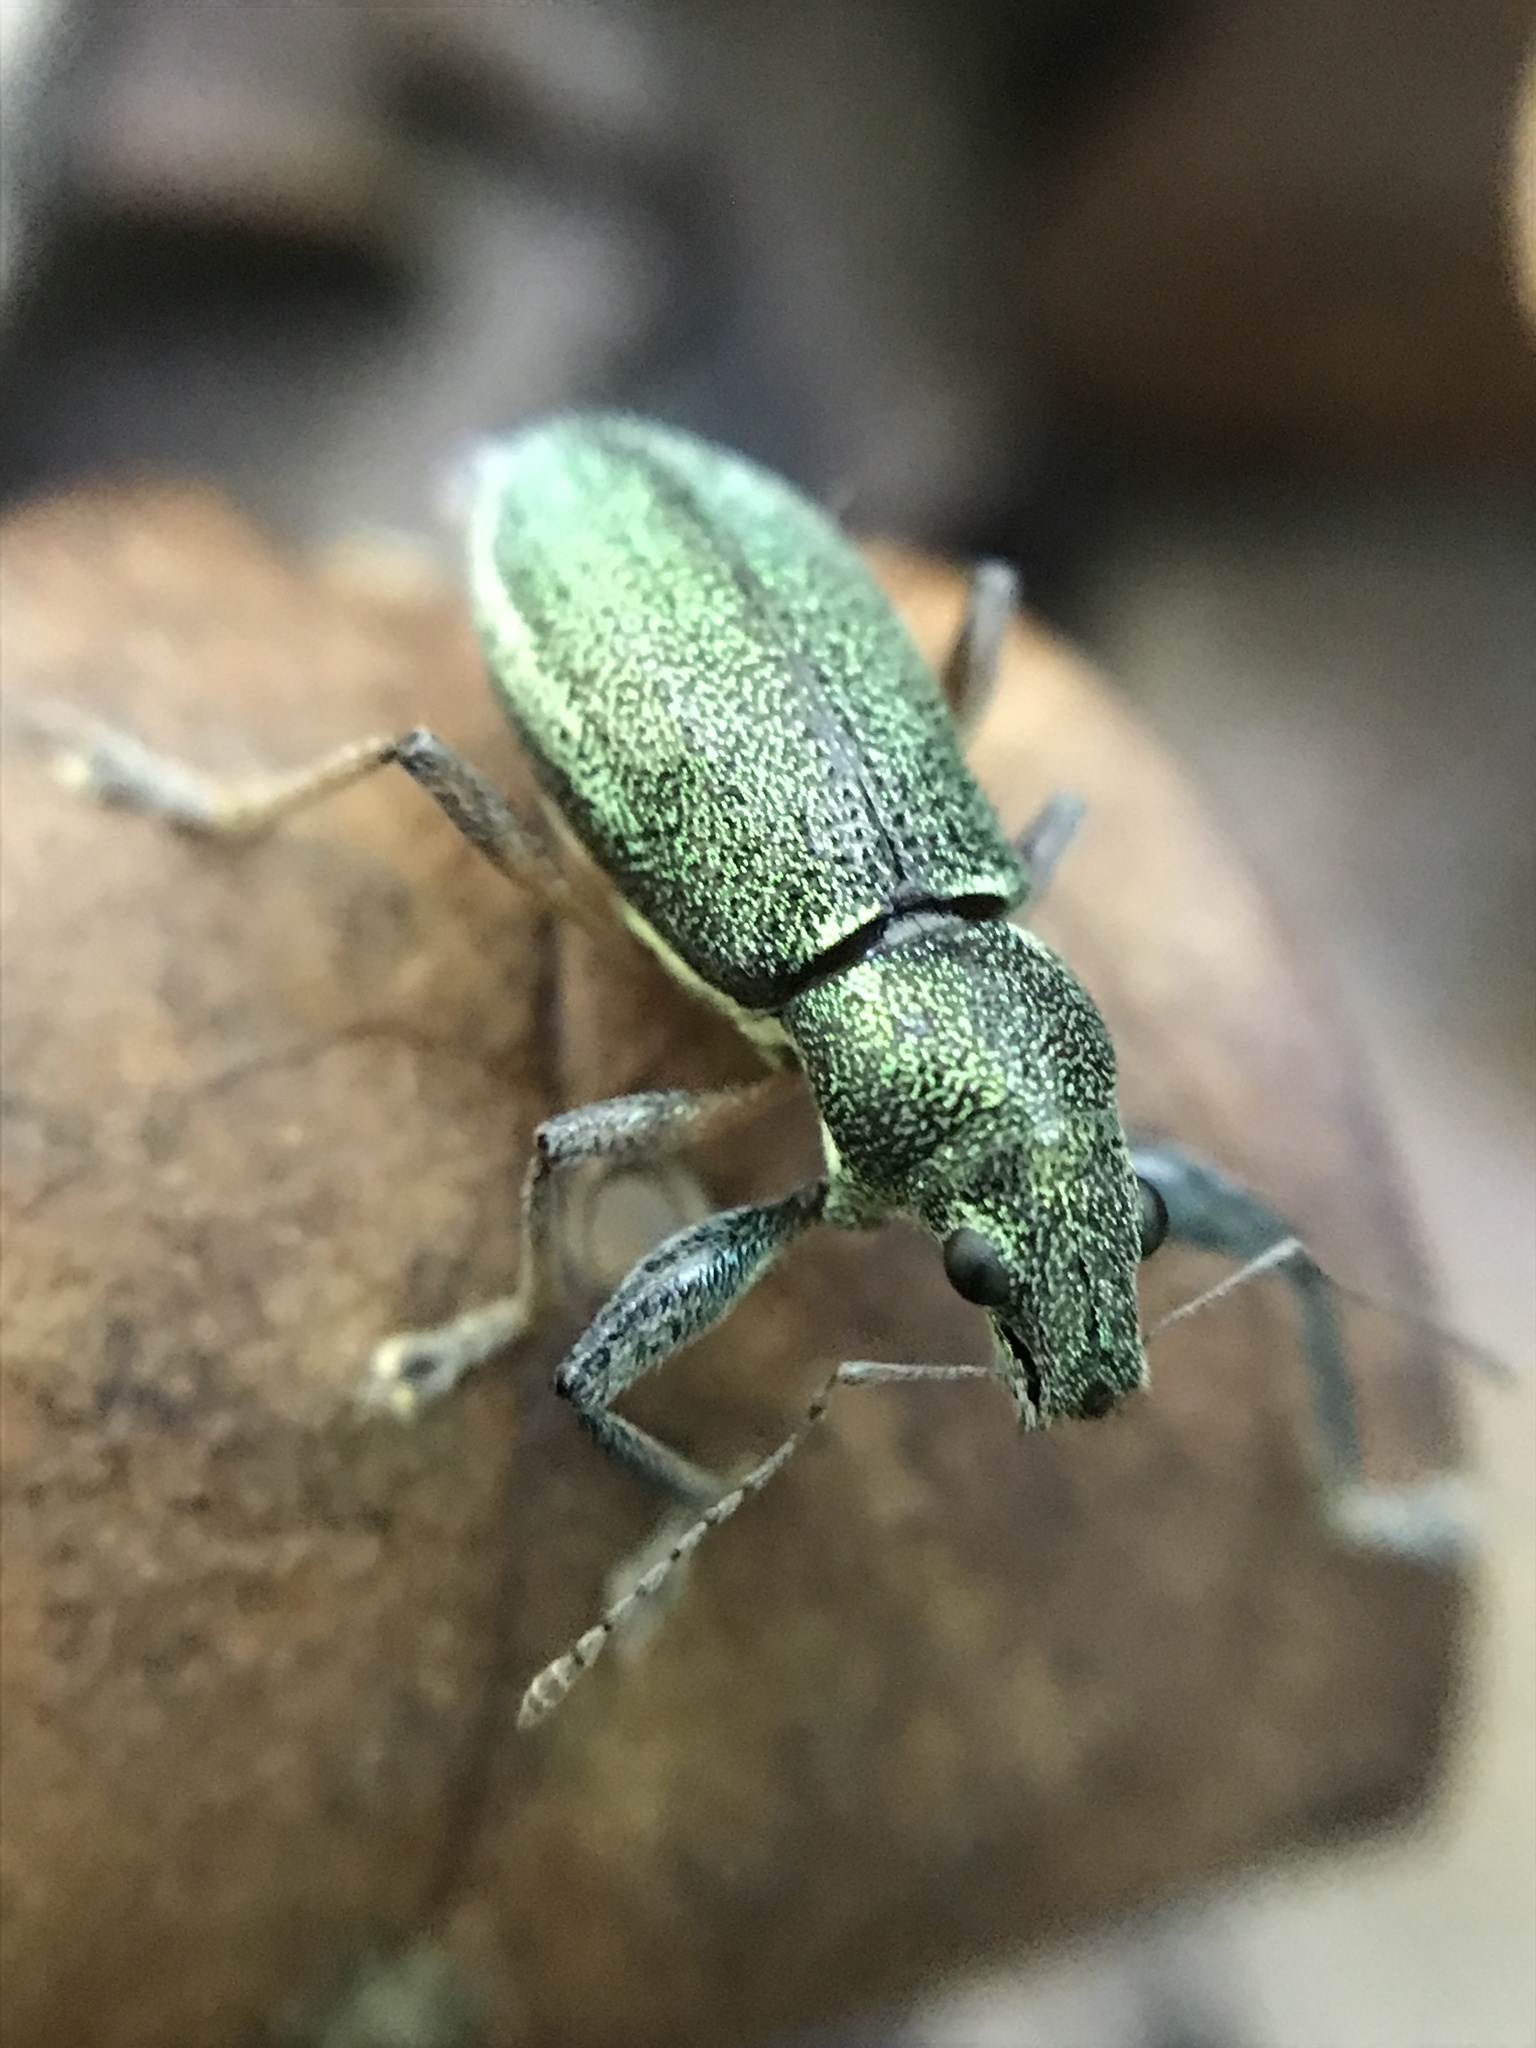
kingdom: Animalia
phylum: Arthropoda
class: Insecta
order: Coleoptera
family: Curculionidae
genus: Naupactus
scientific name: Naupactus auricinctus
